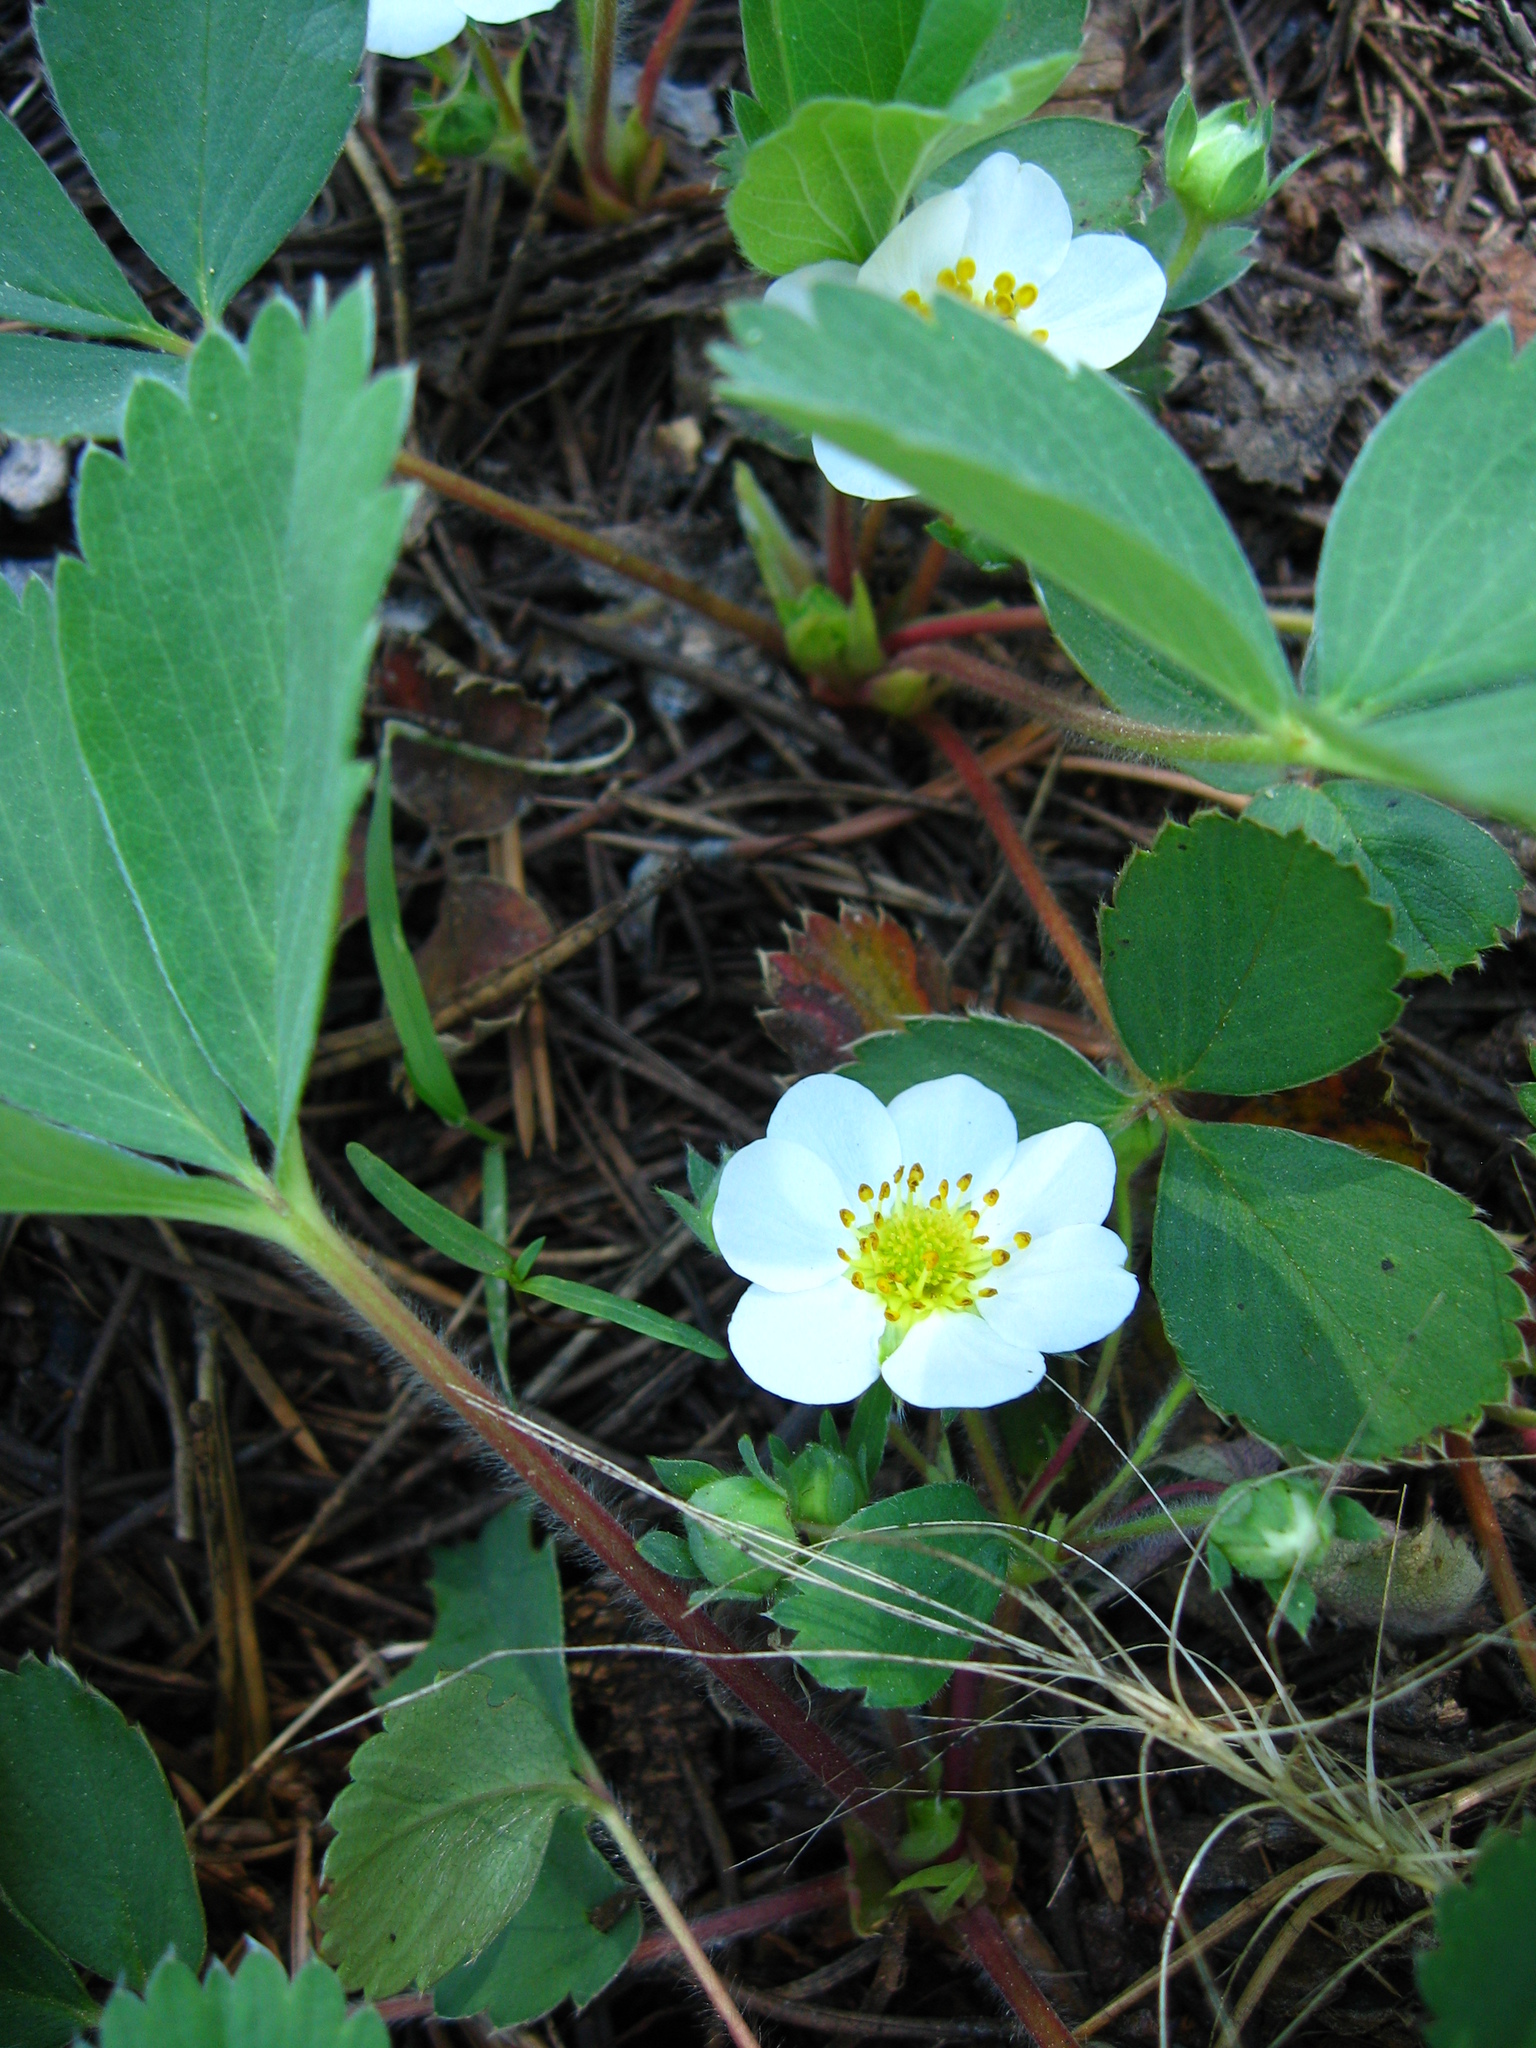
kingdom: Plantae
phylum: Tracheophyta
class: Magnoliopsida
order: Rosales
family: Rosaceae
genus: Fragaria
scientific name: Fragaria virginiana
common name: Thickleaved wild strawberry
